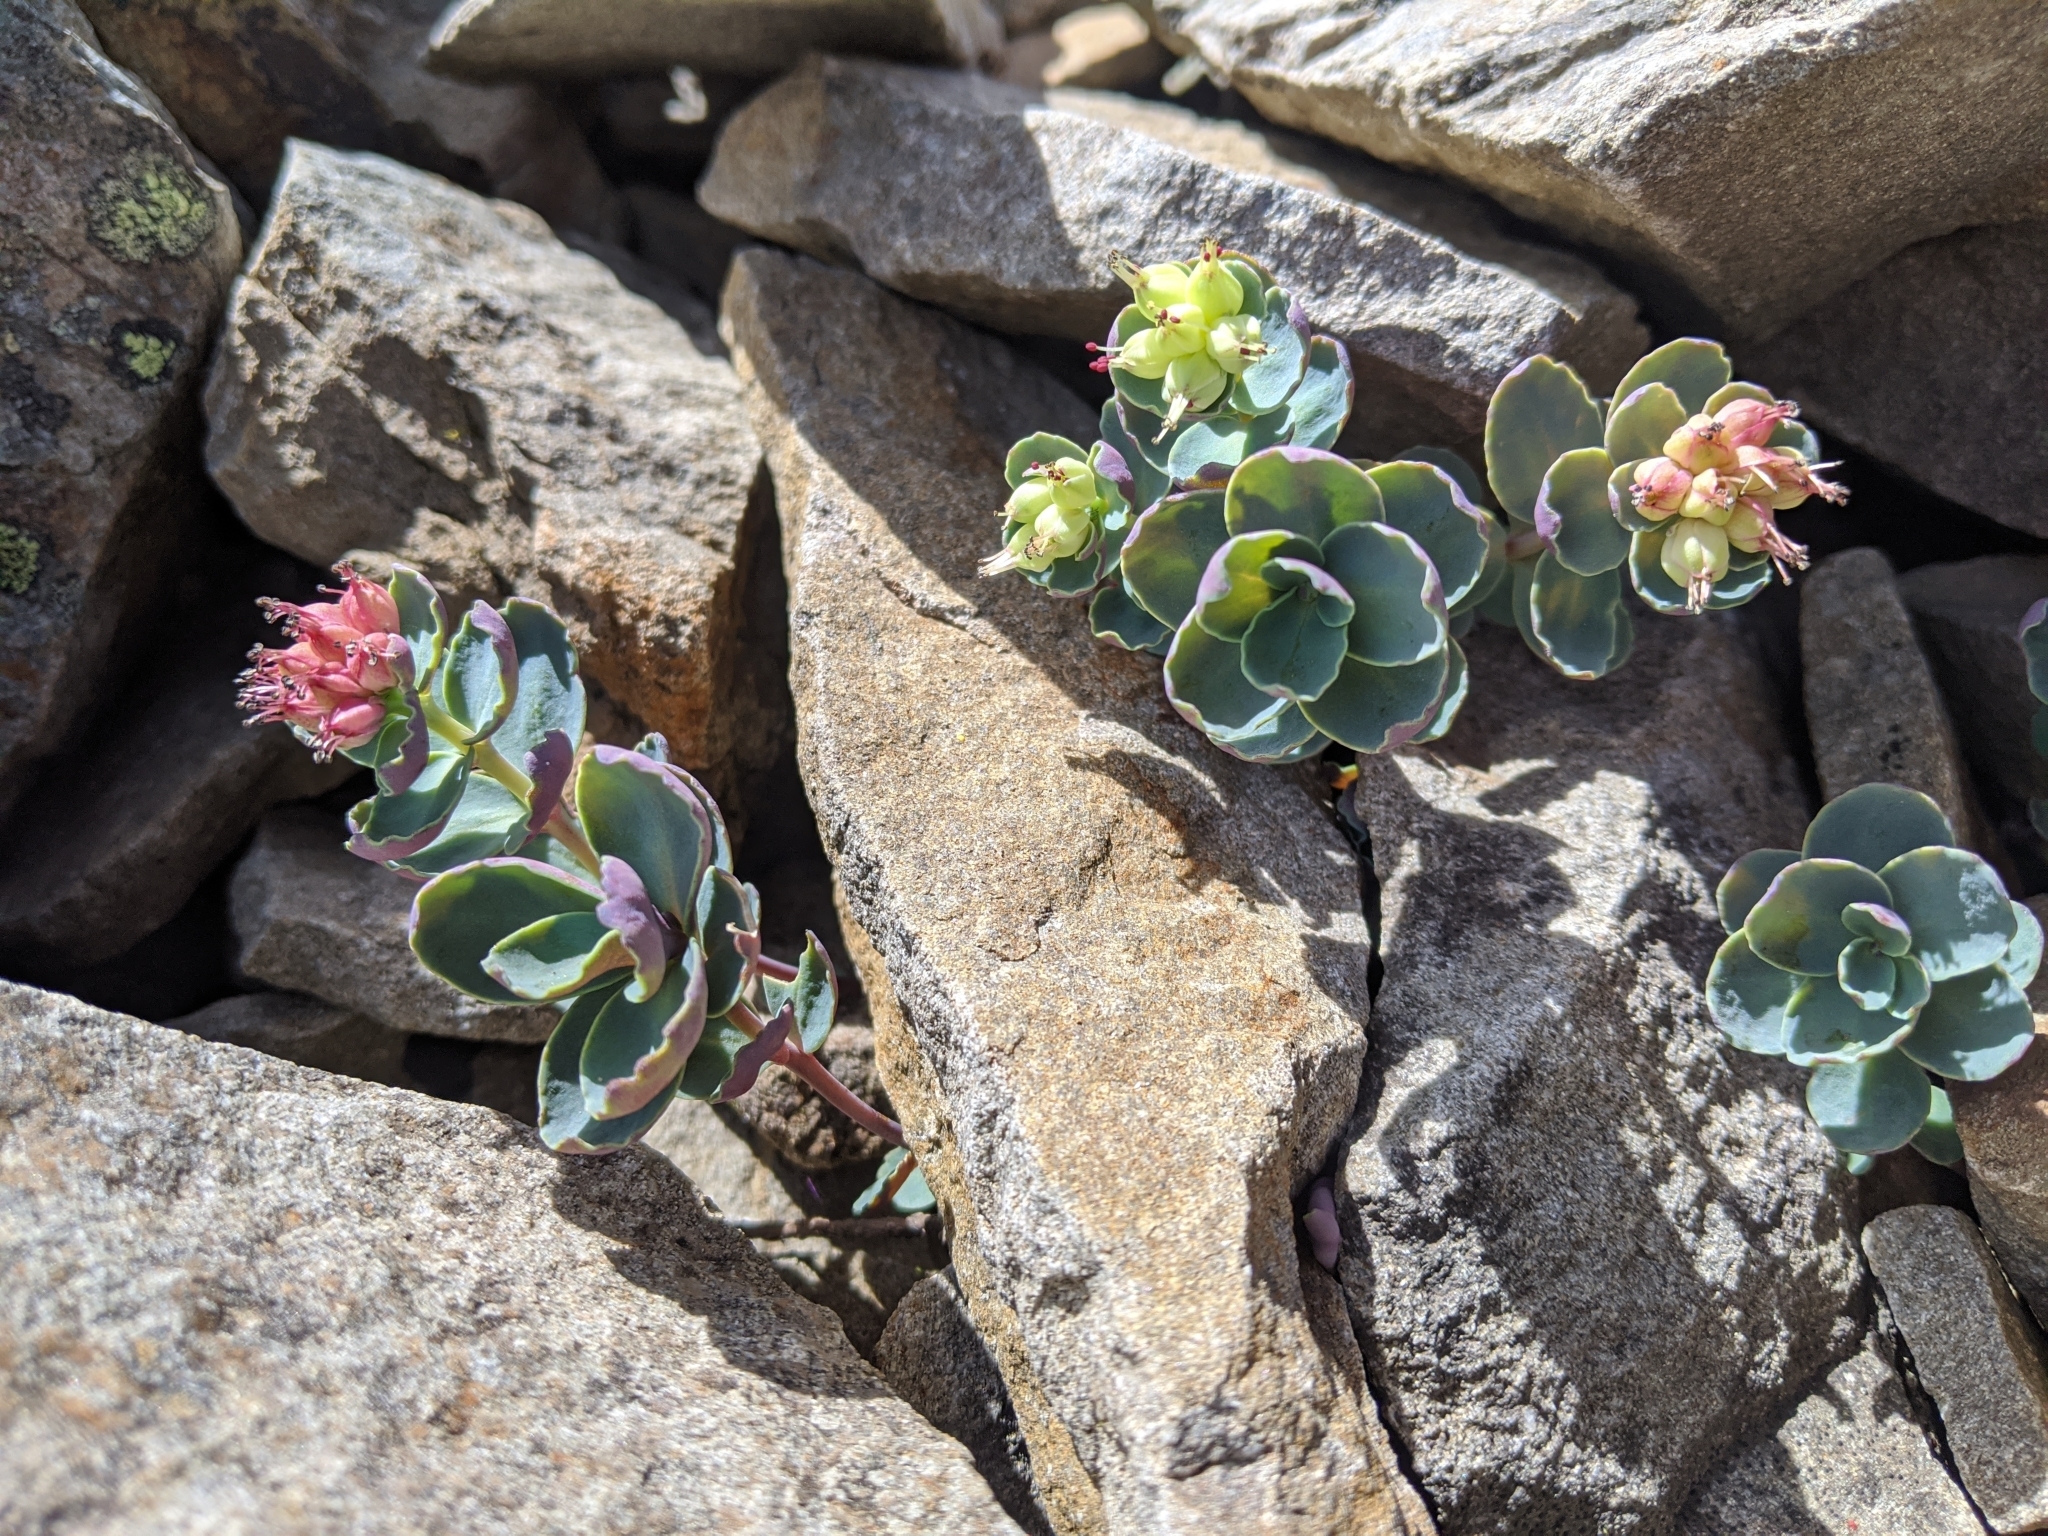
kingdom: Plantae
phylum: Tracheophyta
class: Magnoliopsida
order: Saxifragales
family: Crassulaceae
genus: Phedimus
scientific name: Phedimus subcapitatus
